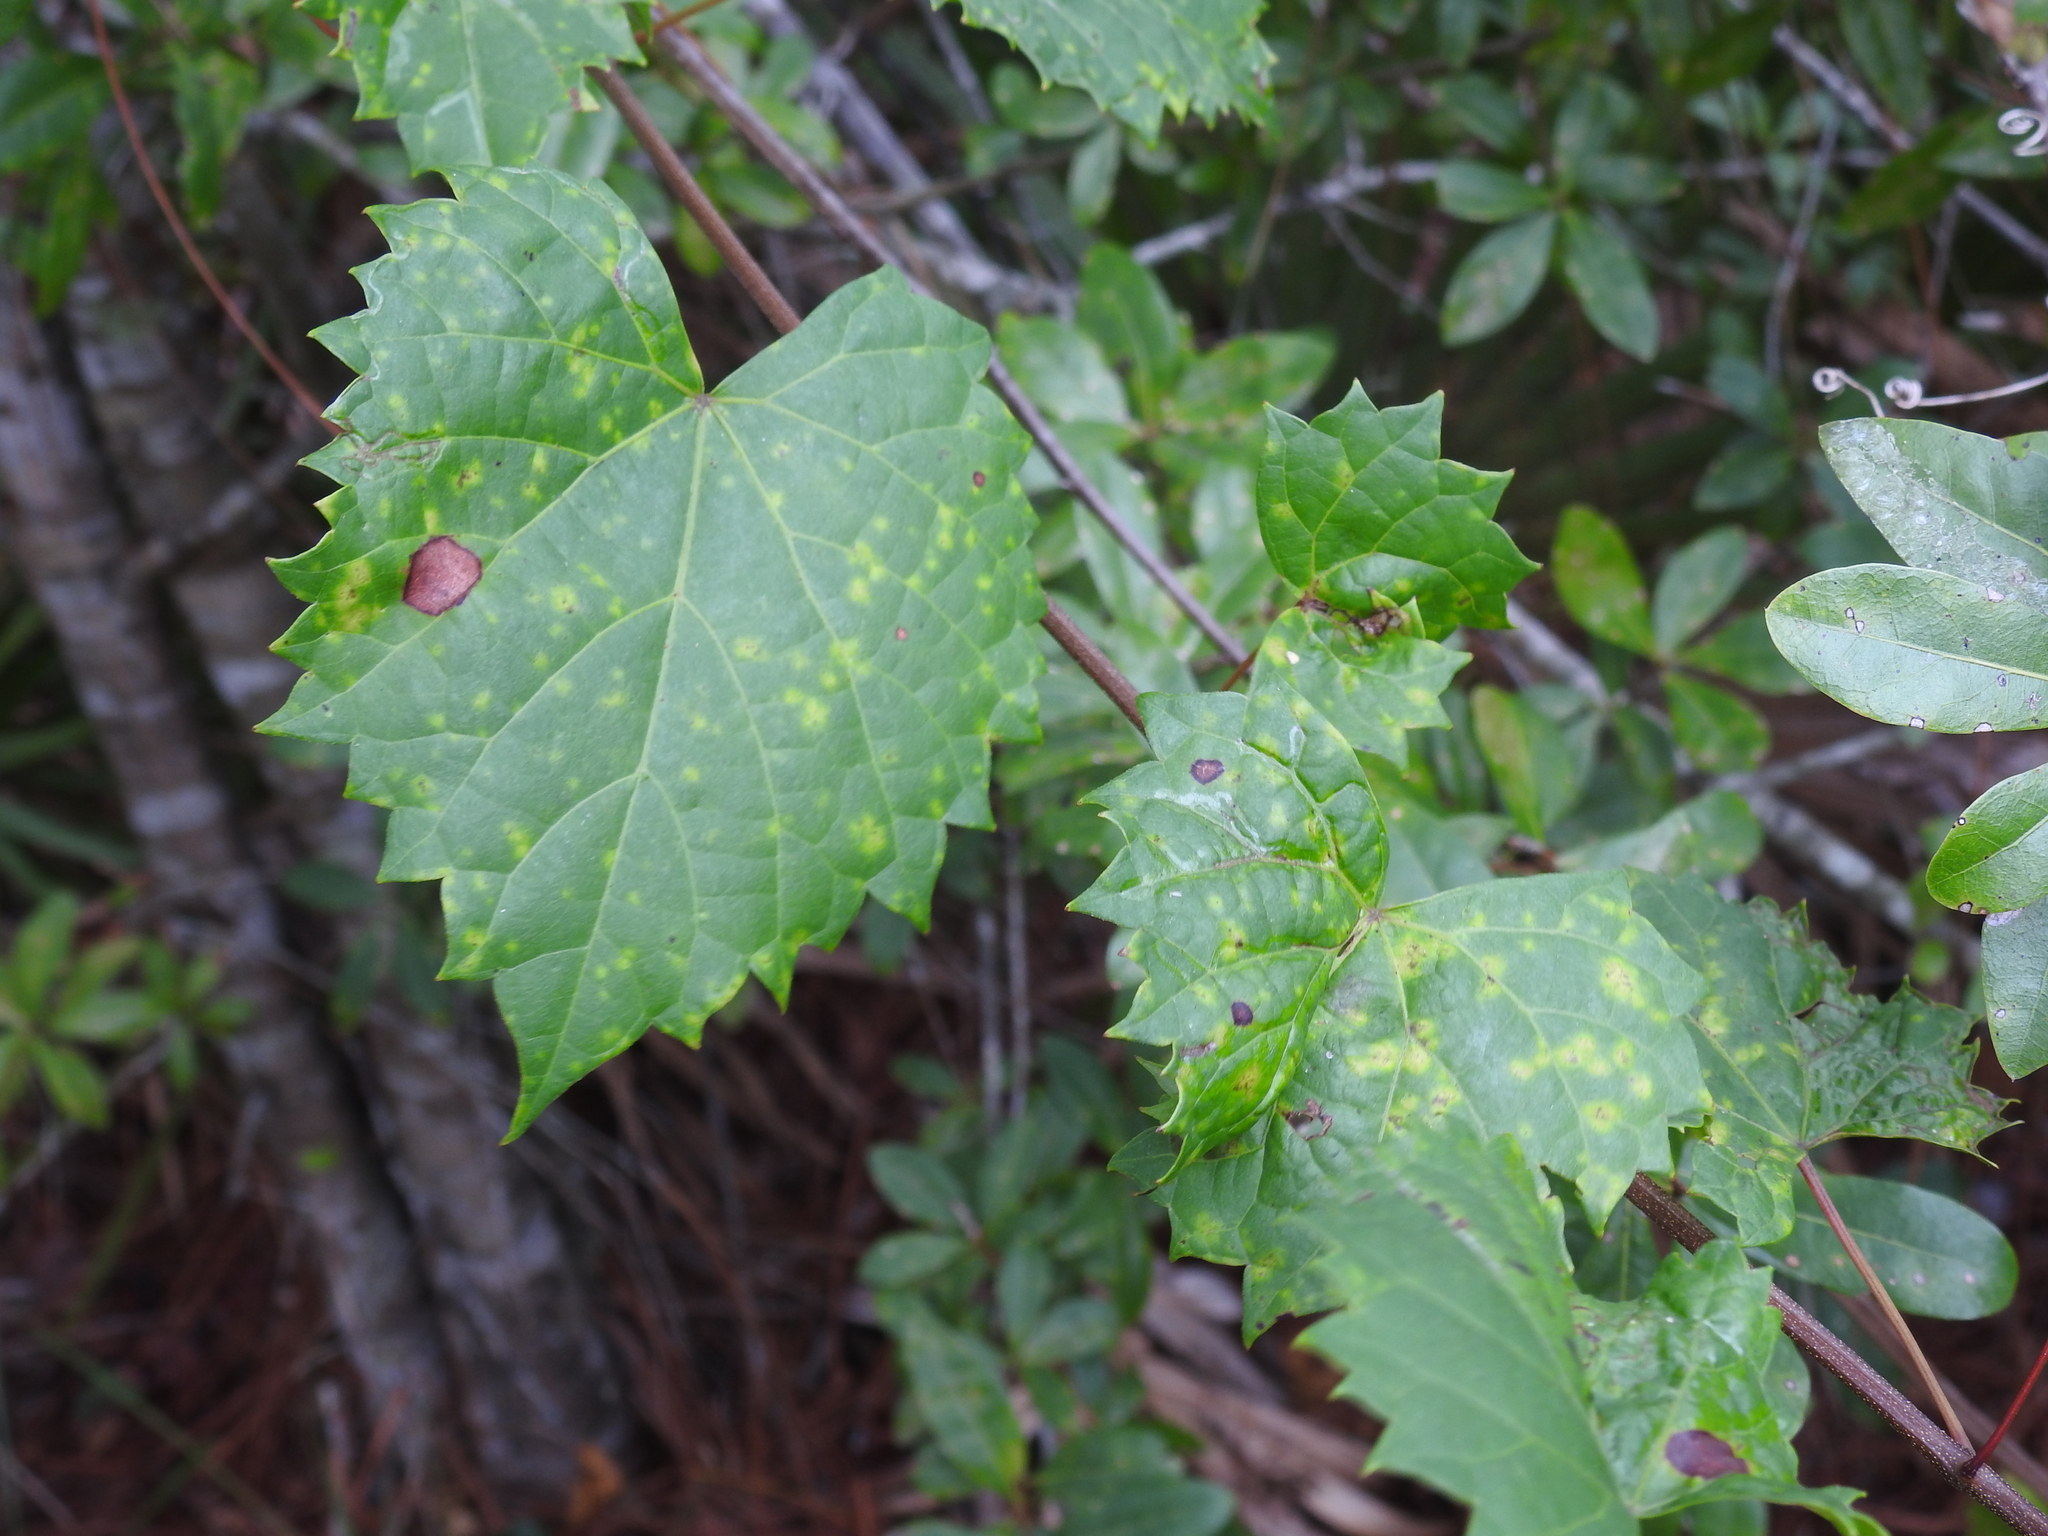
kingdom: Plantae
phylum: Tracheophyta
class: Magnoliopsida
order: Vitales
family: Vitaceae
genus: Vitis
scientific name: Vitis rotundifolia
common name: Muscadine grape
